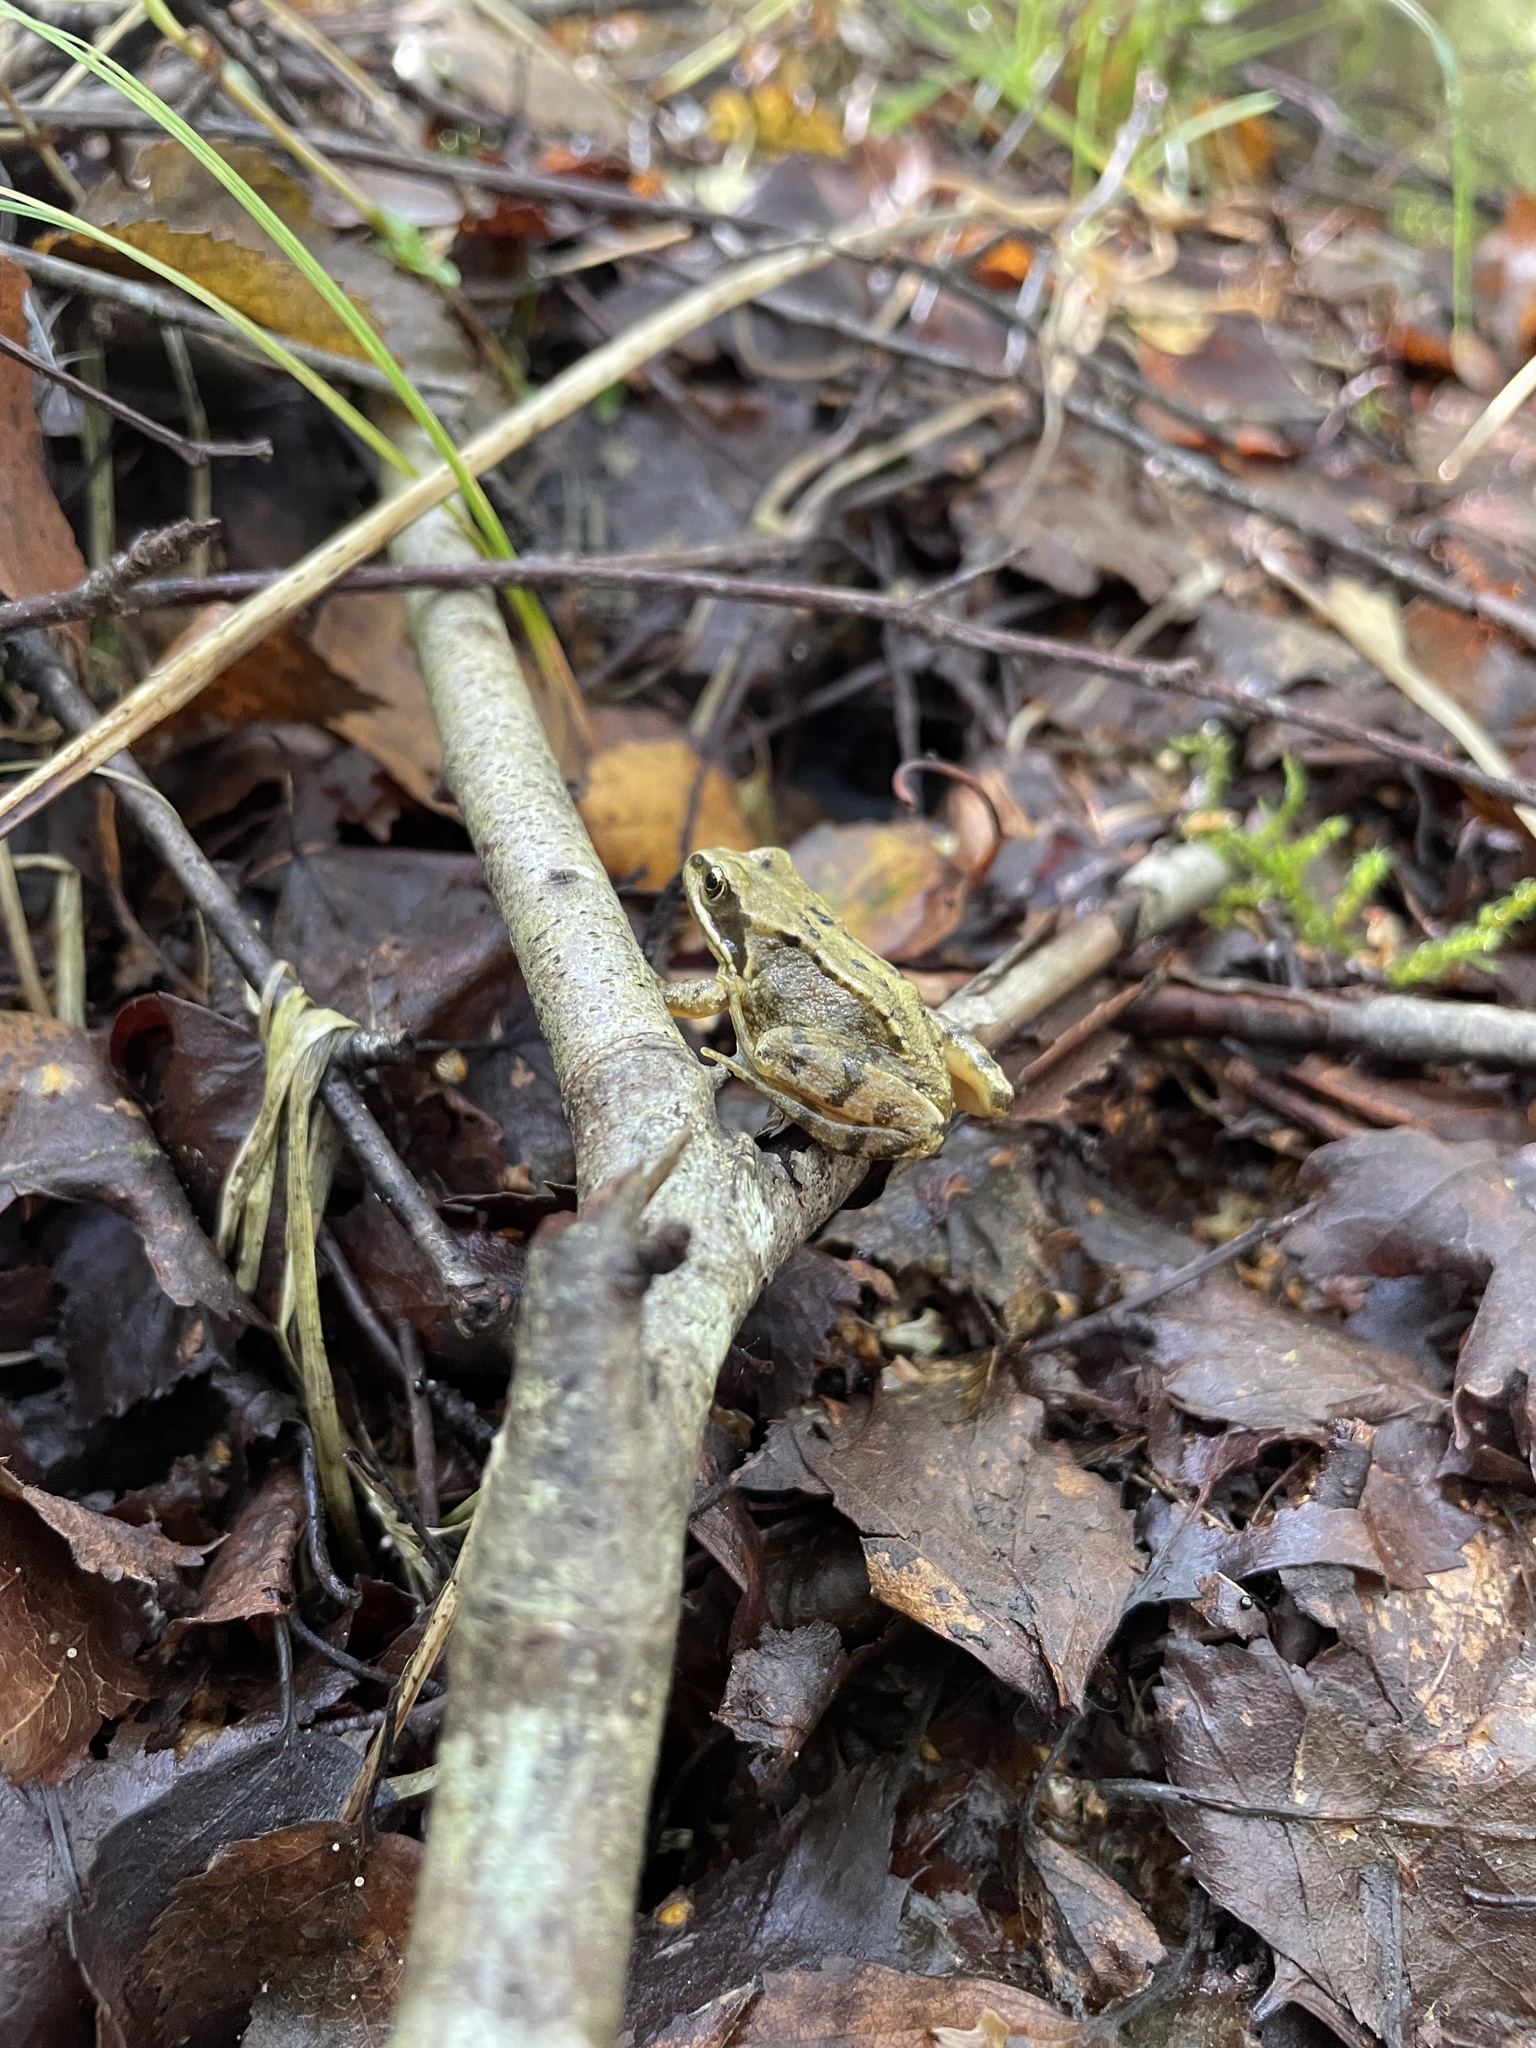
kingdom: Animalia
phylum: Chordata
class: Amphibia
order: Anura
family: Ranidae
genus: Rana
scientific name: Rana temporaria
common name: Common frog
